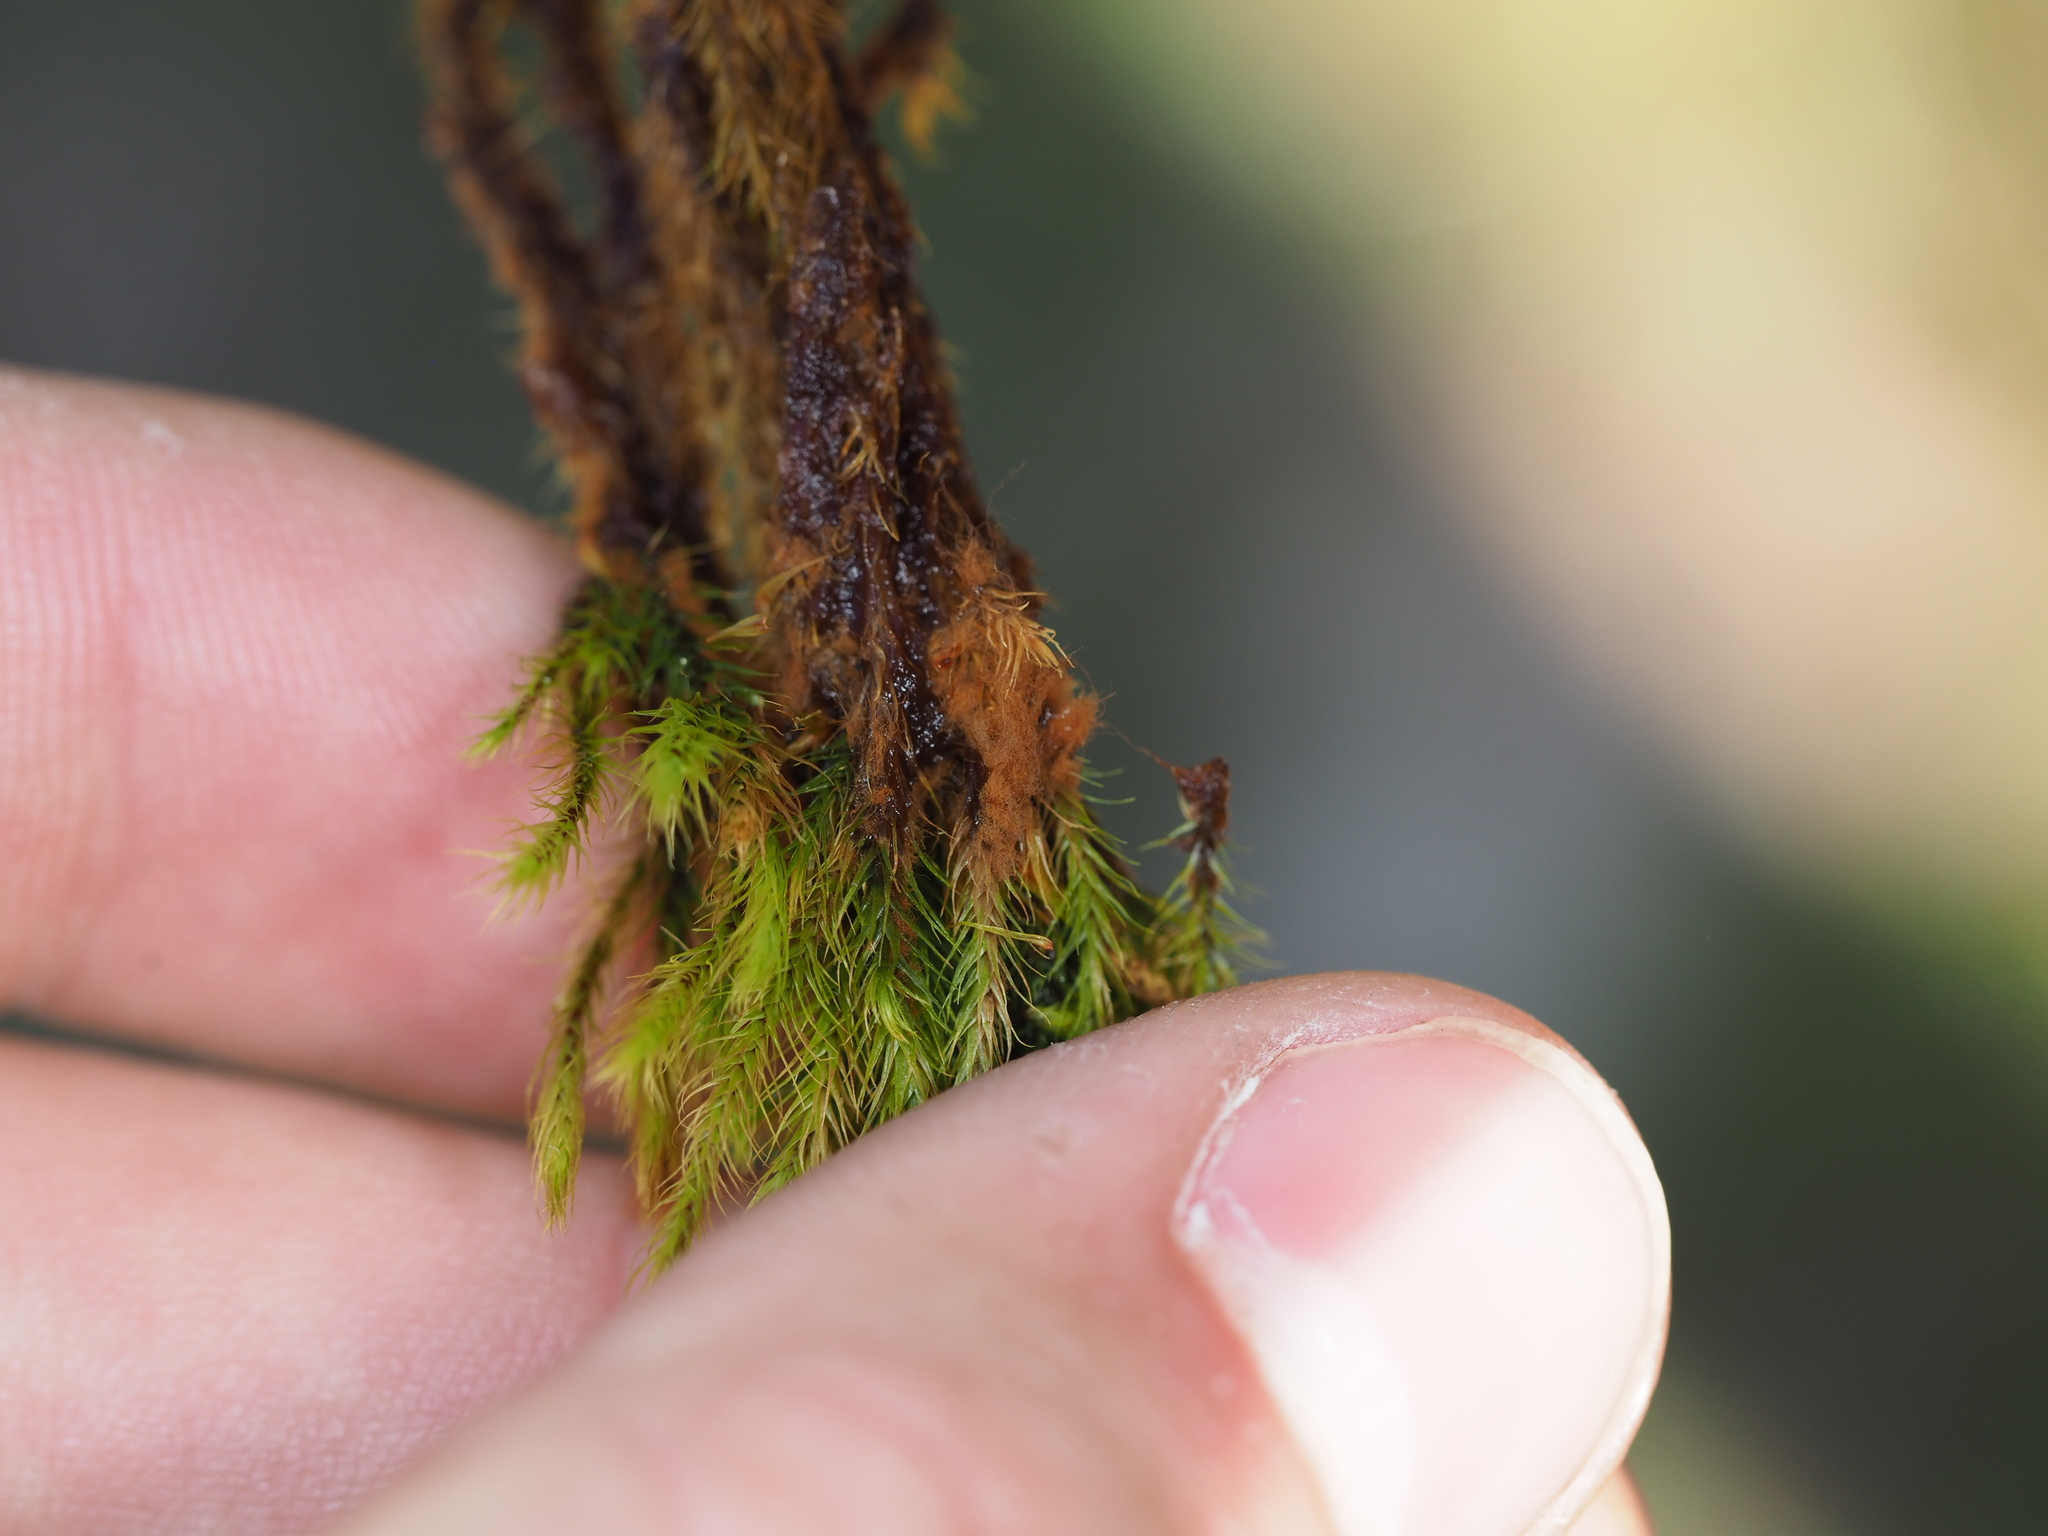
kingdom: Plantae
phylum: Bryophyta
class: Bryopsida
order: Bartramiales
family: Bartramiaceae
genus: Anacolia
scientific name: Anacolia menziesii
